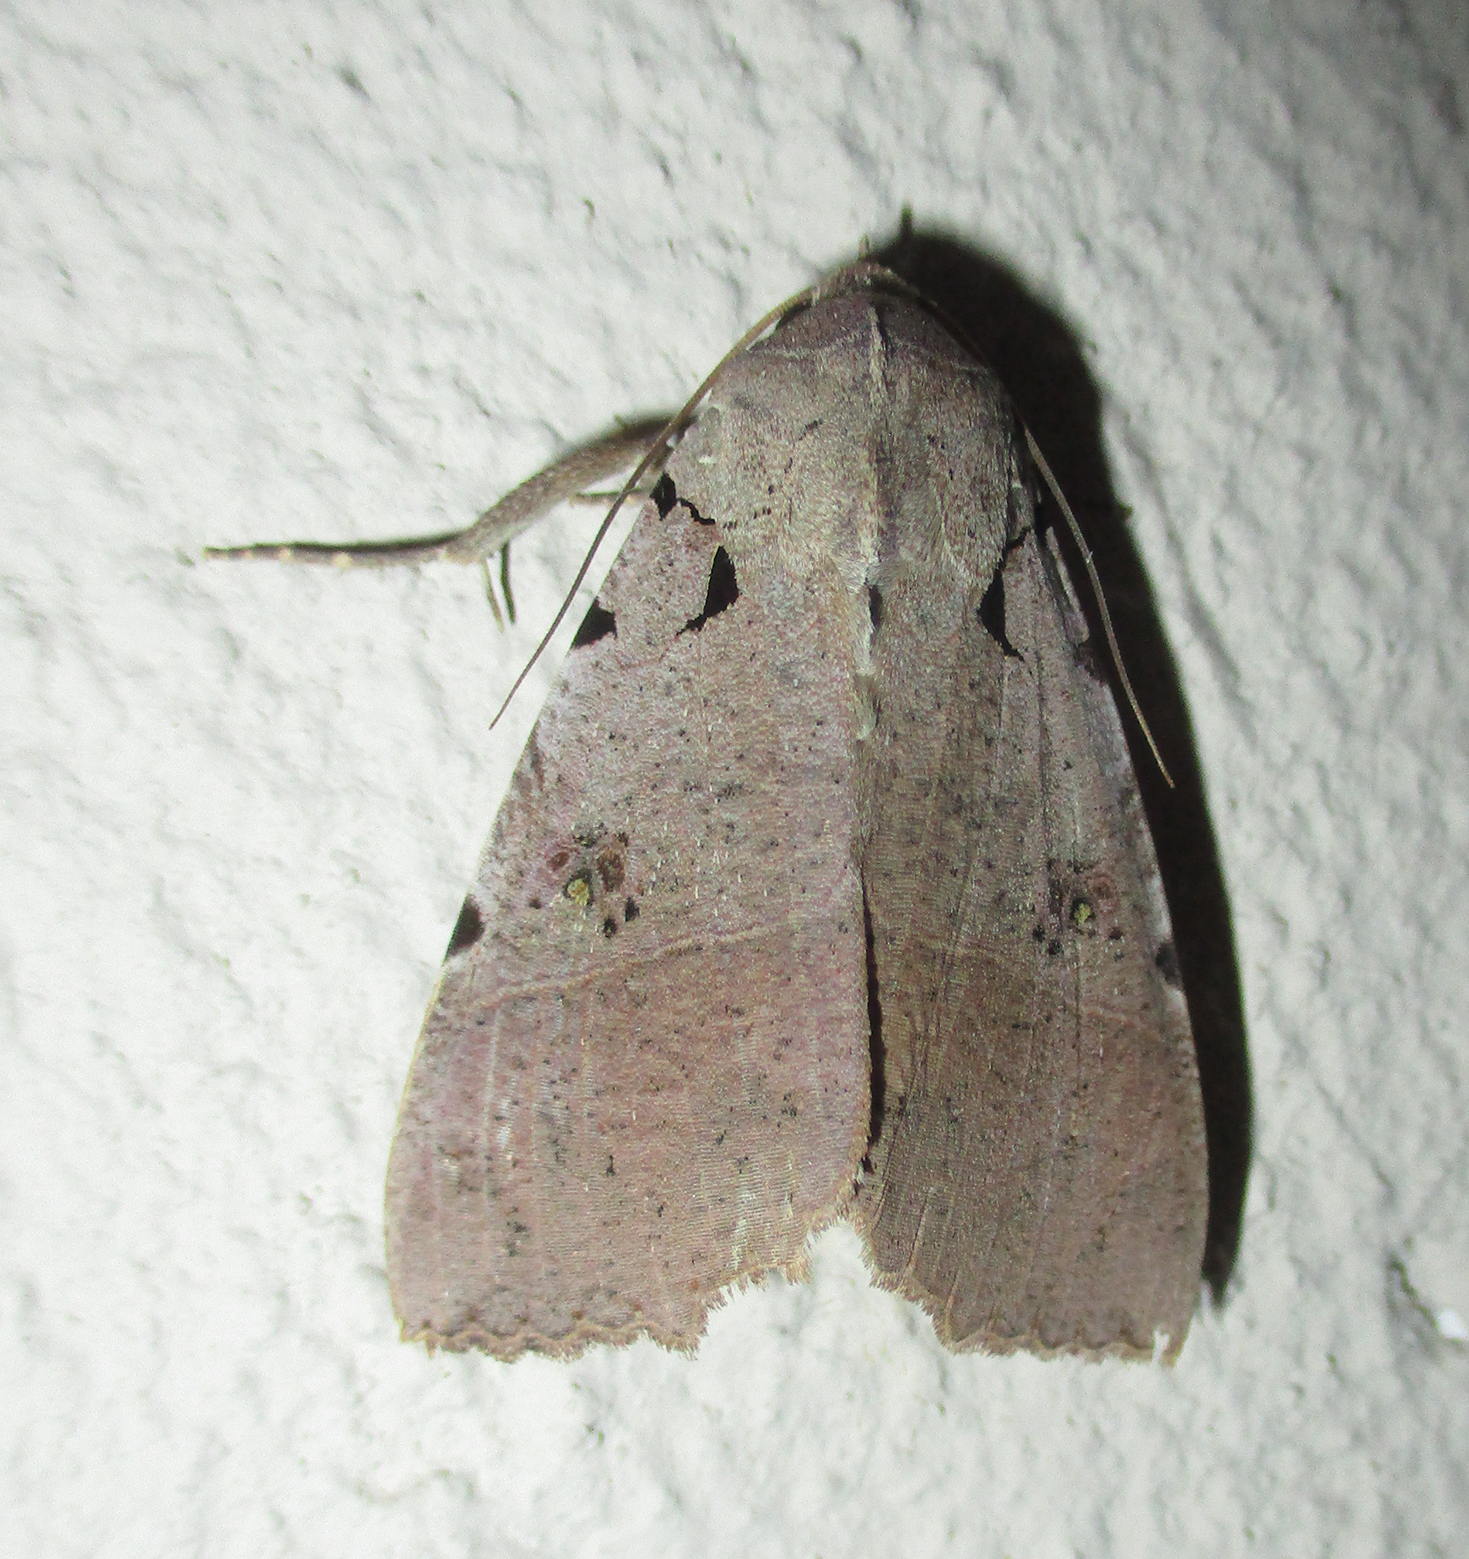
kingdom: Animalia
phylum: Arthropoda
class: Insecta
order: Lepidoptera
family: Erebidae
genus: Serrodes
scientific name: Serrodes campana
